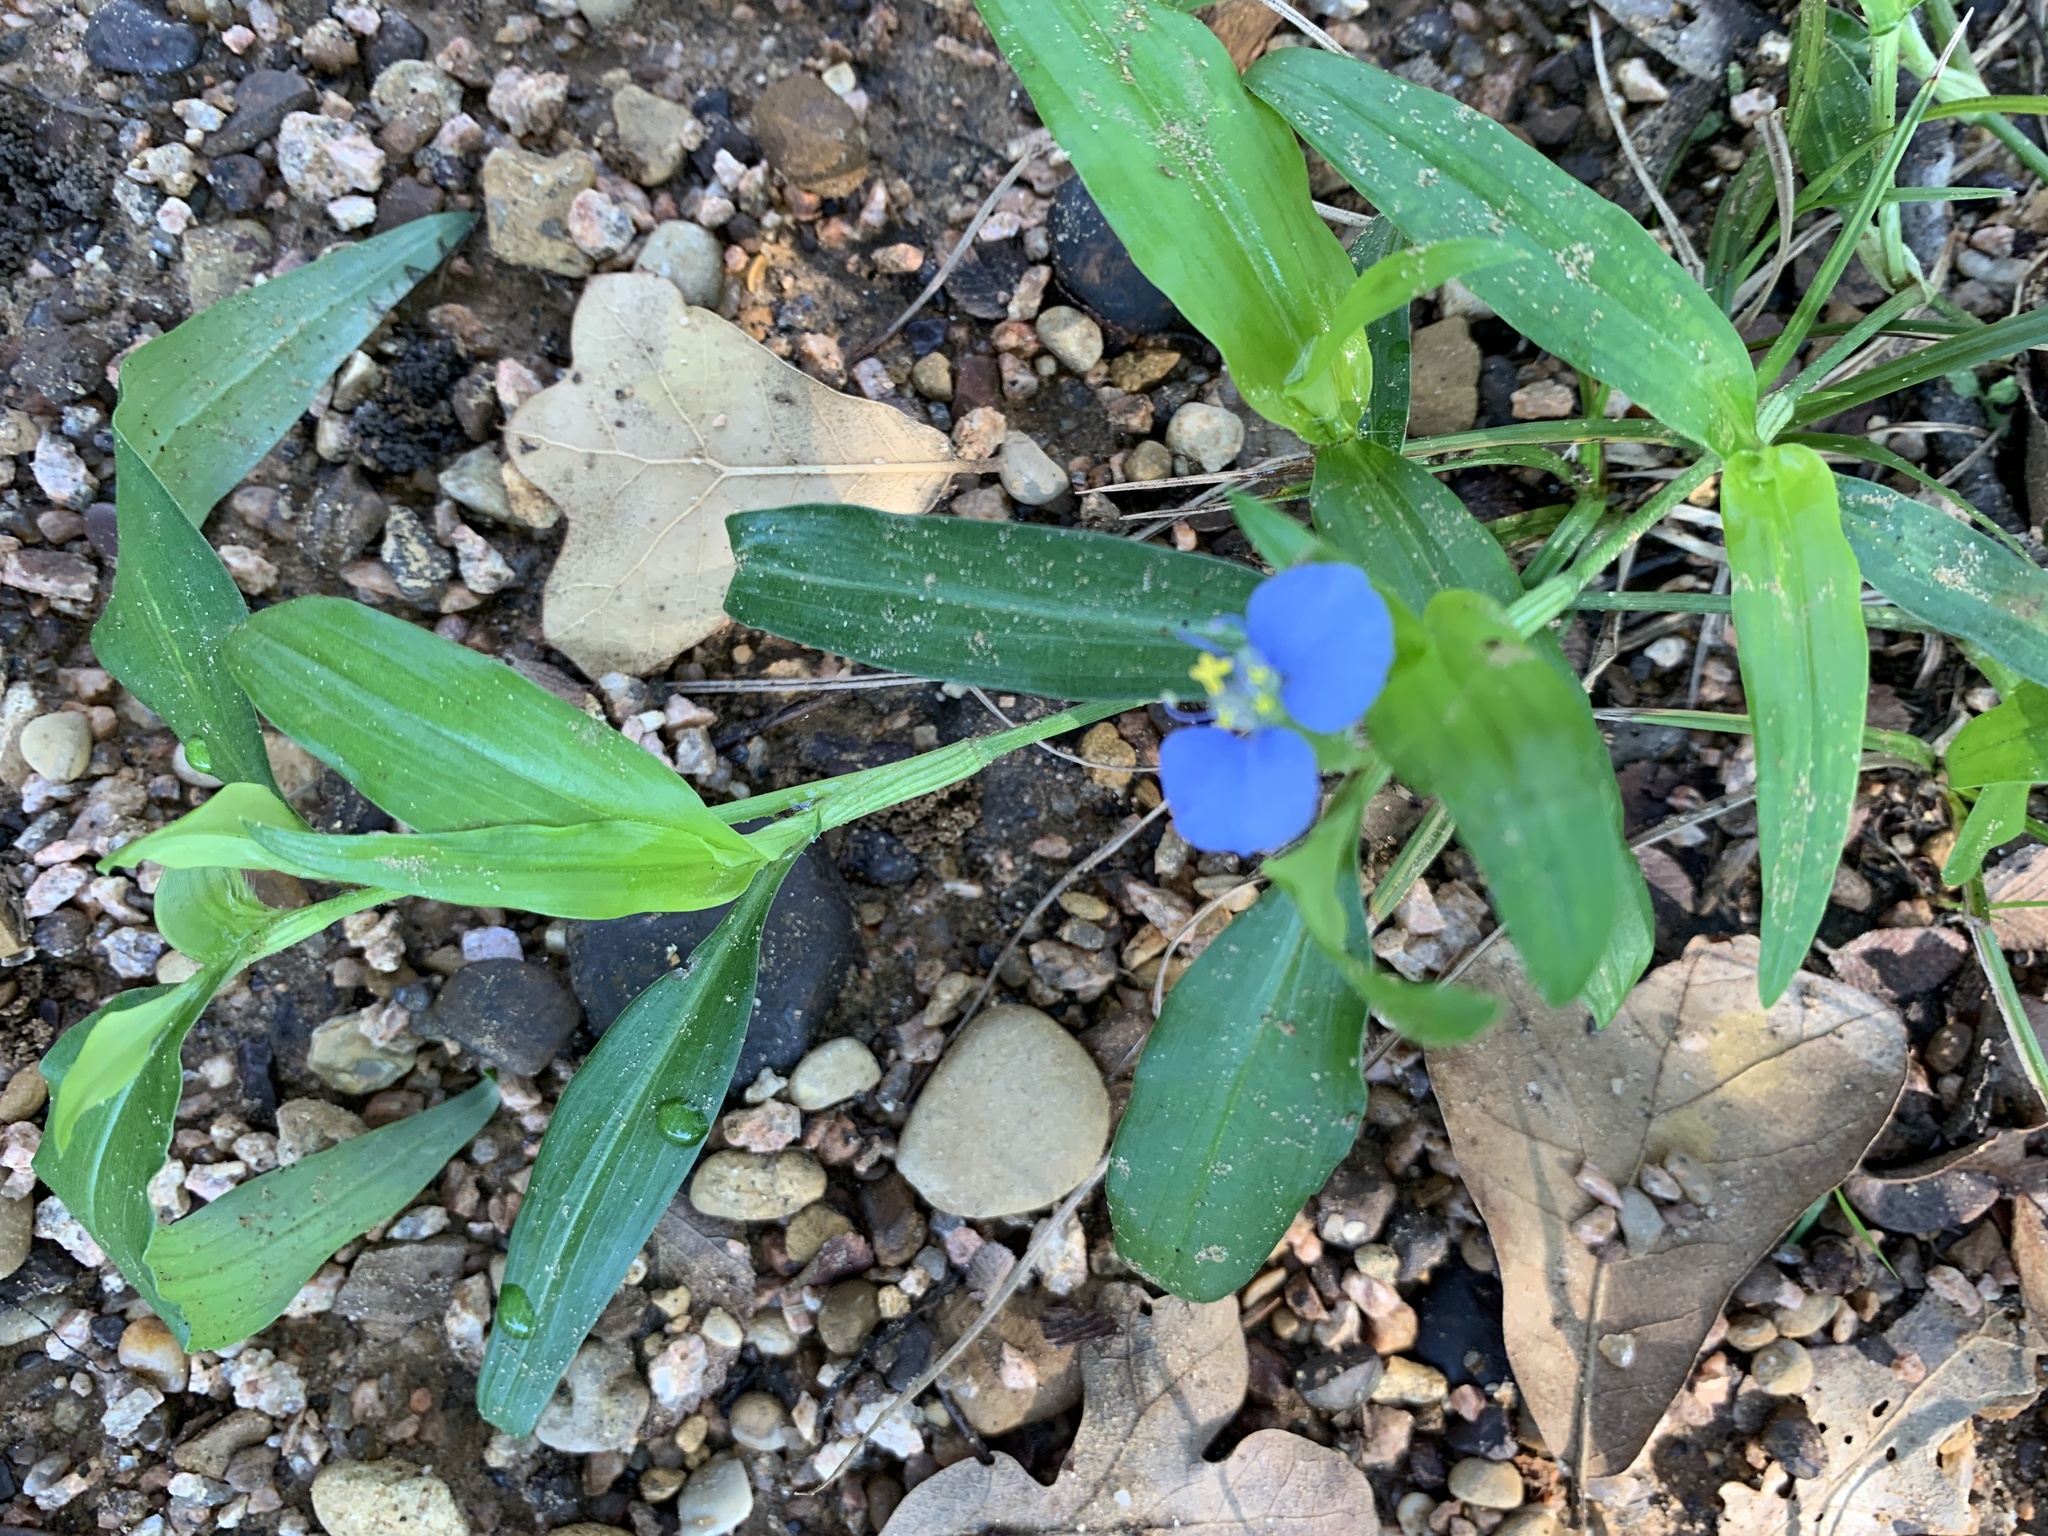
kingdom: Plantae
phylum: Tracheophyta
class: Liliopsida
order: Commelinales
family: Commelinaceae
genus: Commelina
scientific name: Commelina erecta
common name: Blousel blommetjie
